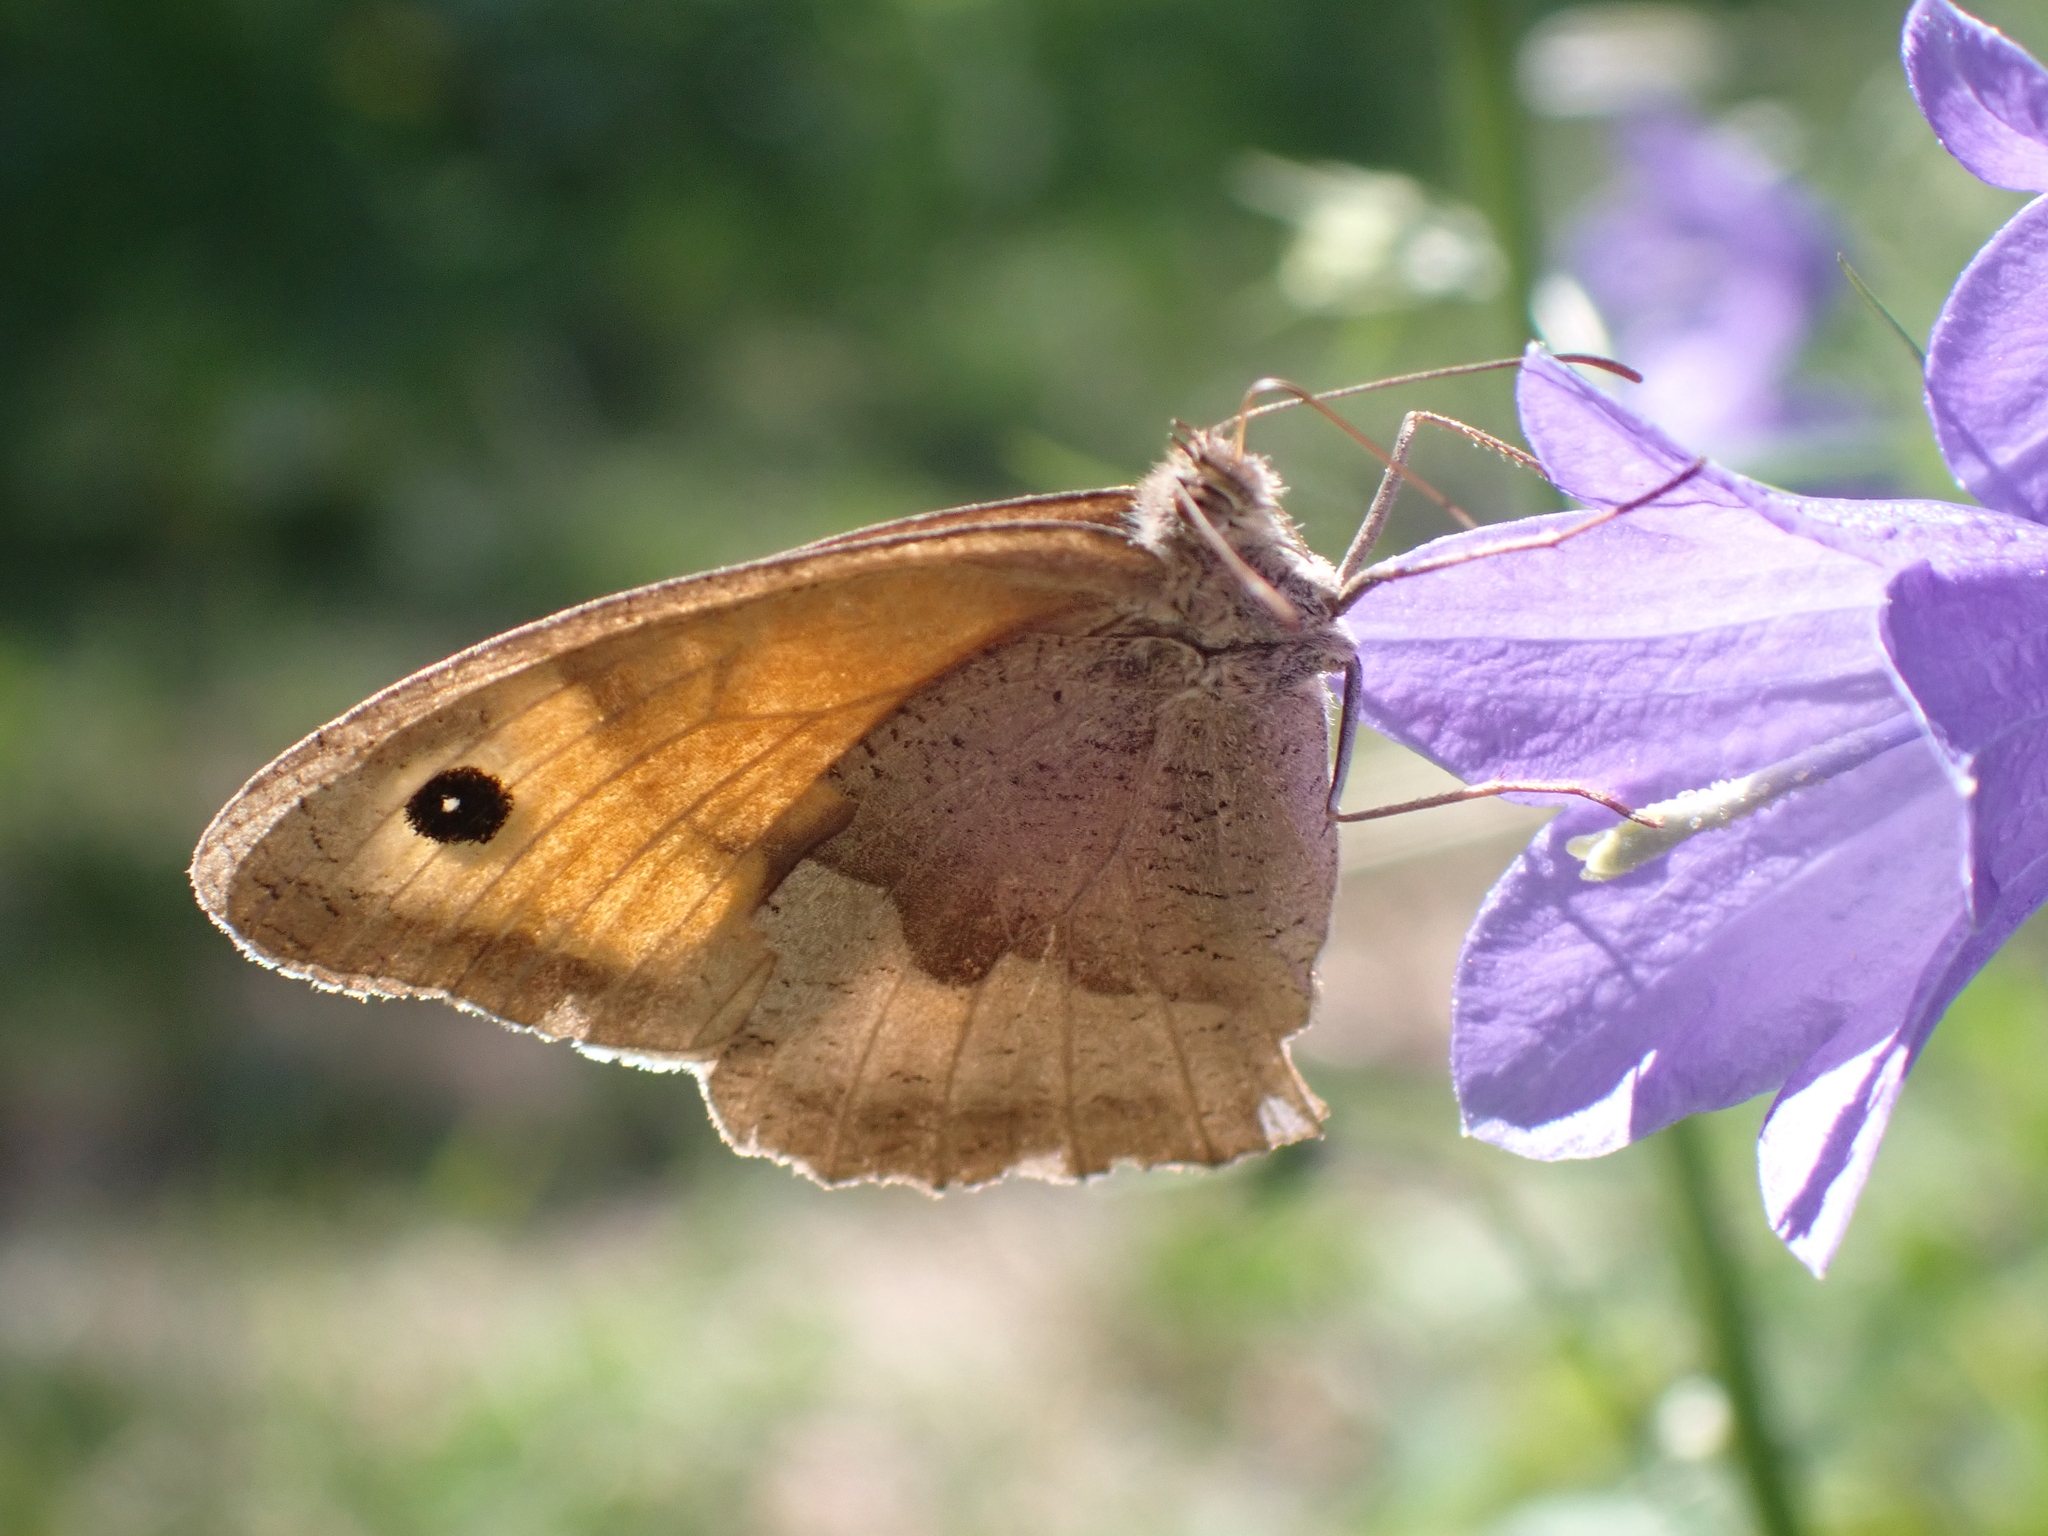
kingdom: Animalia
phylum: Arthropoda
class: Insecta
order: Lepidoptera
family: Nymphalidae
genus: Maniola
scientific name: Maniola jurtina
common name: Meadow brown
